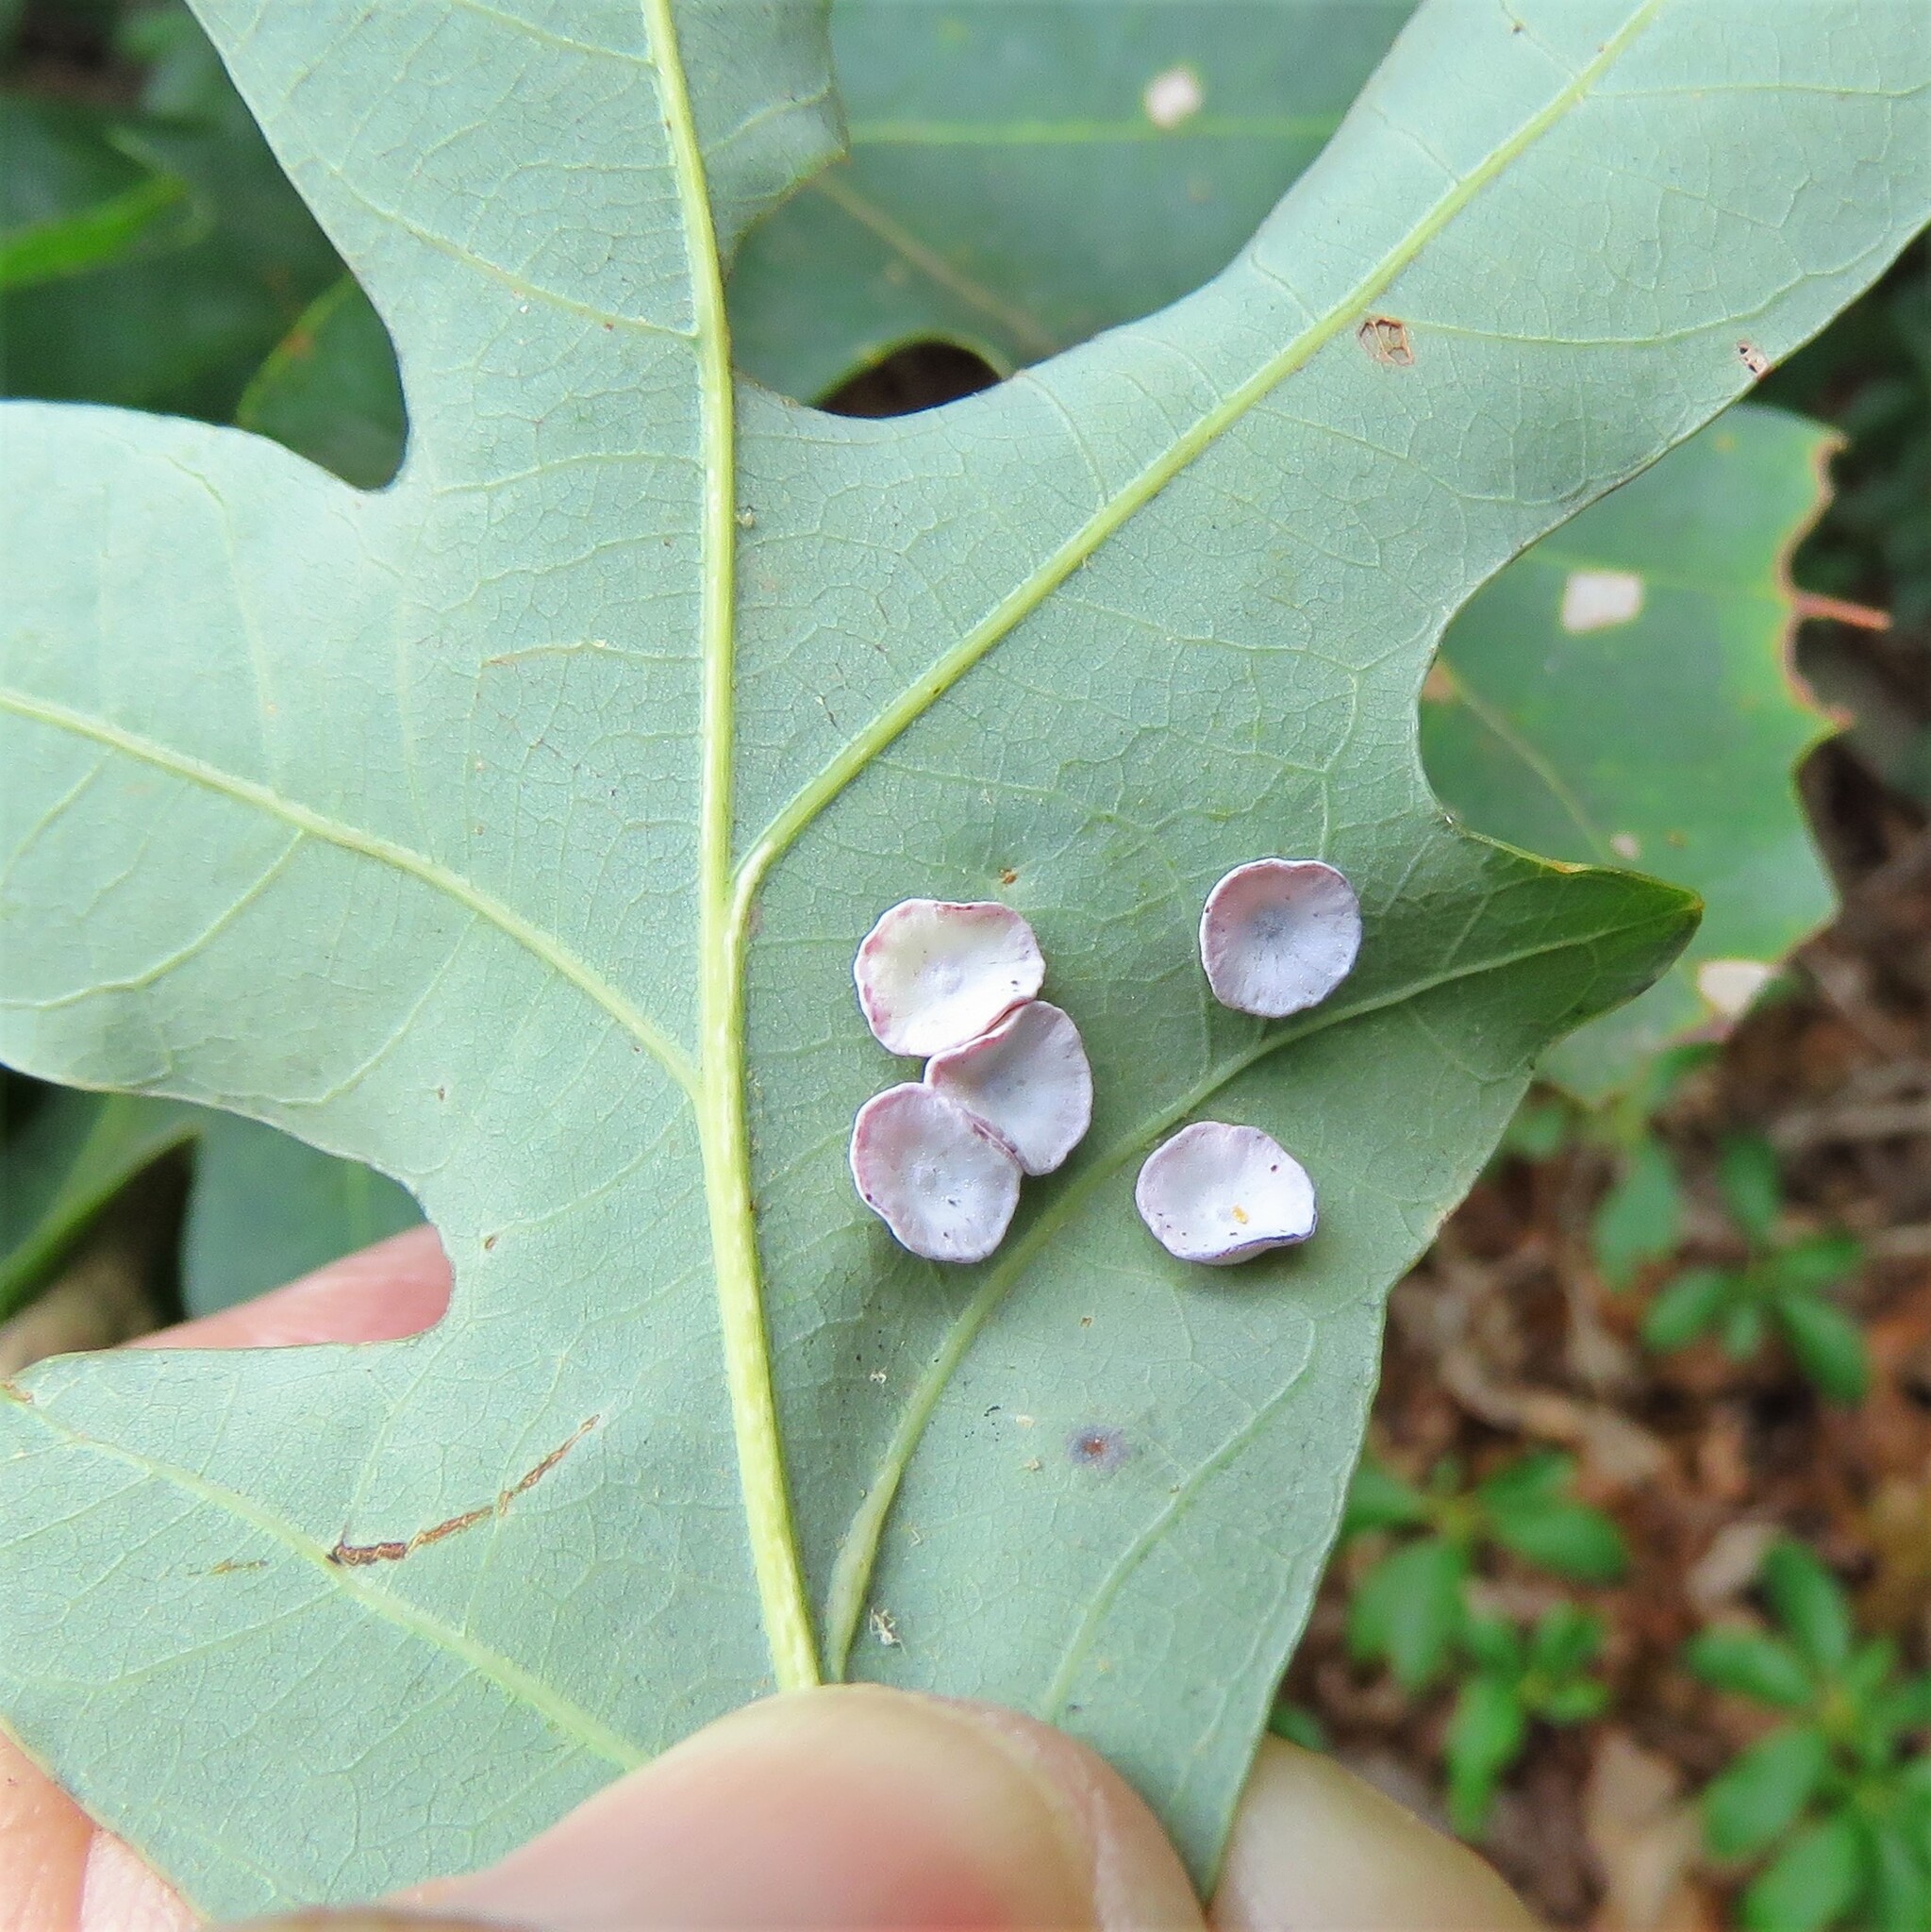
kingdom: Animalia
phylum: Arthropoda
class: Insecta
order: Hymenoptera
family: Cynipidae
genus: Phylloteras
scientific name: Phylloteras poculum
